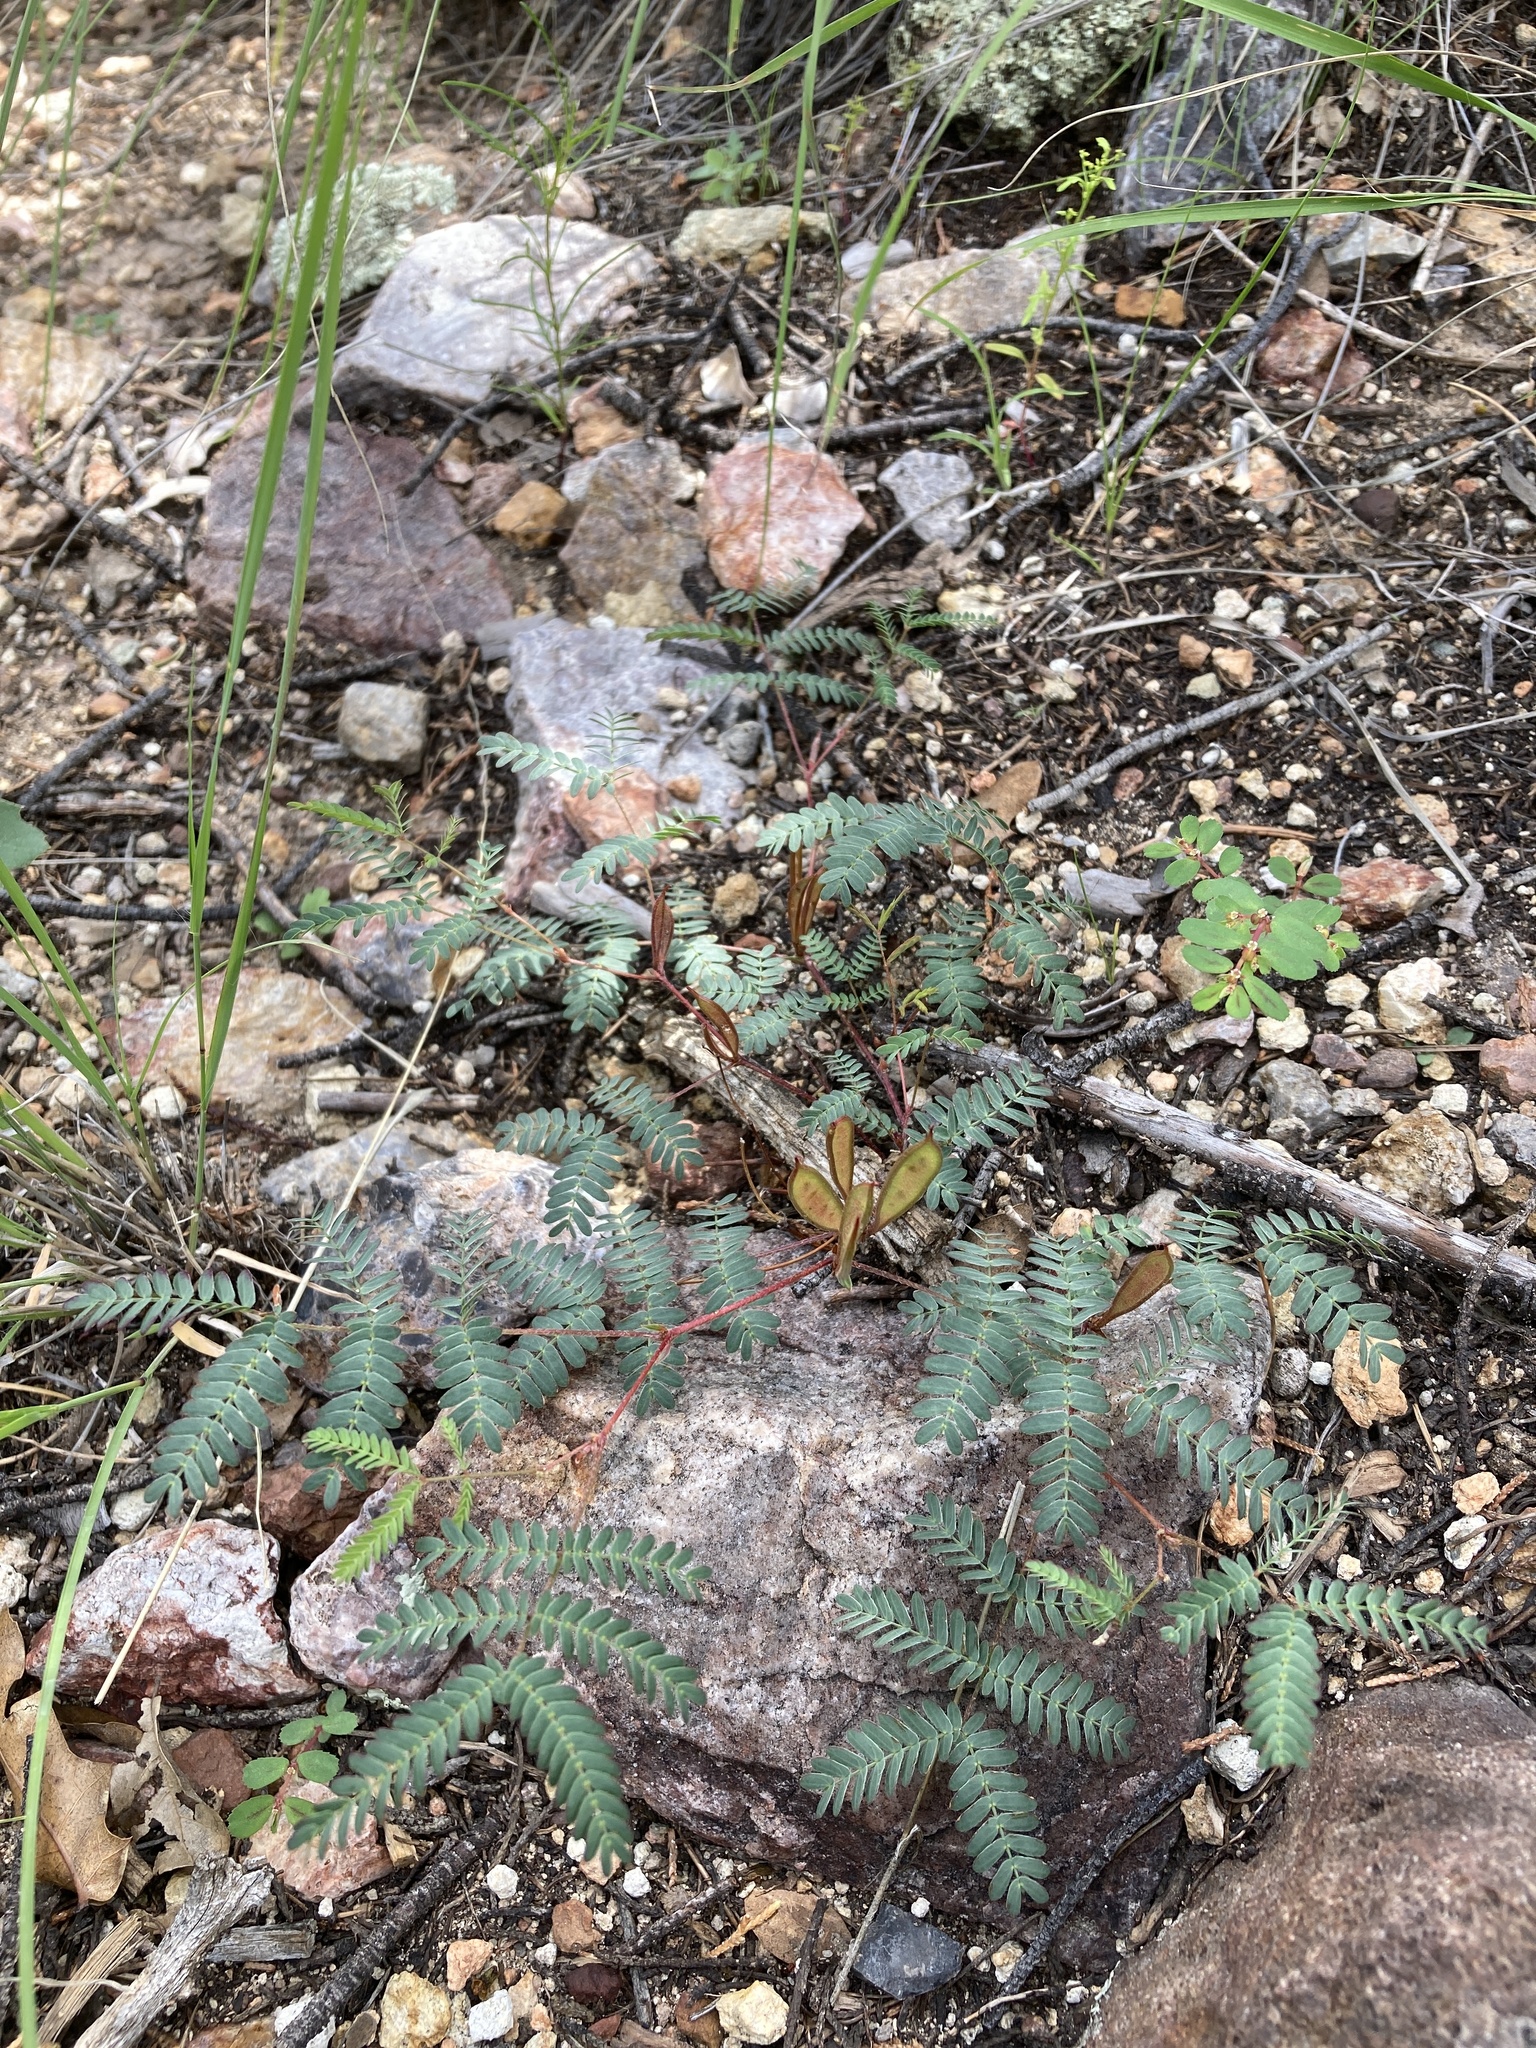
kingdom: Plantae
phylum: Tracheophyta
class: Magnoliopsida
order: Fabales
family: Fabaceae
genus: Calliandra
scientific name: Calliandra humilis
